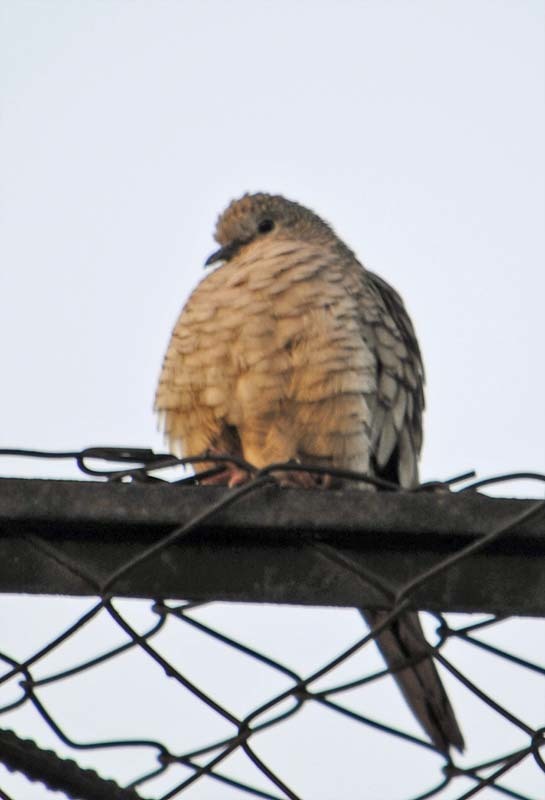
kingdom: Animalia
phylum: Chordata
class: Aves
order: Columbiformes
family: Columbidae
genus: Columbina
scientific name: Columbina inca
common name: Inca dove
